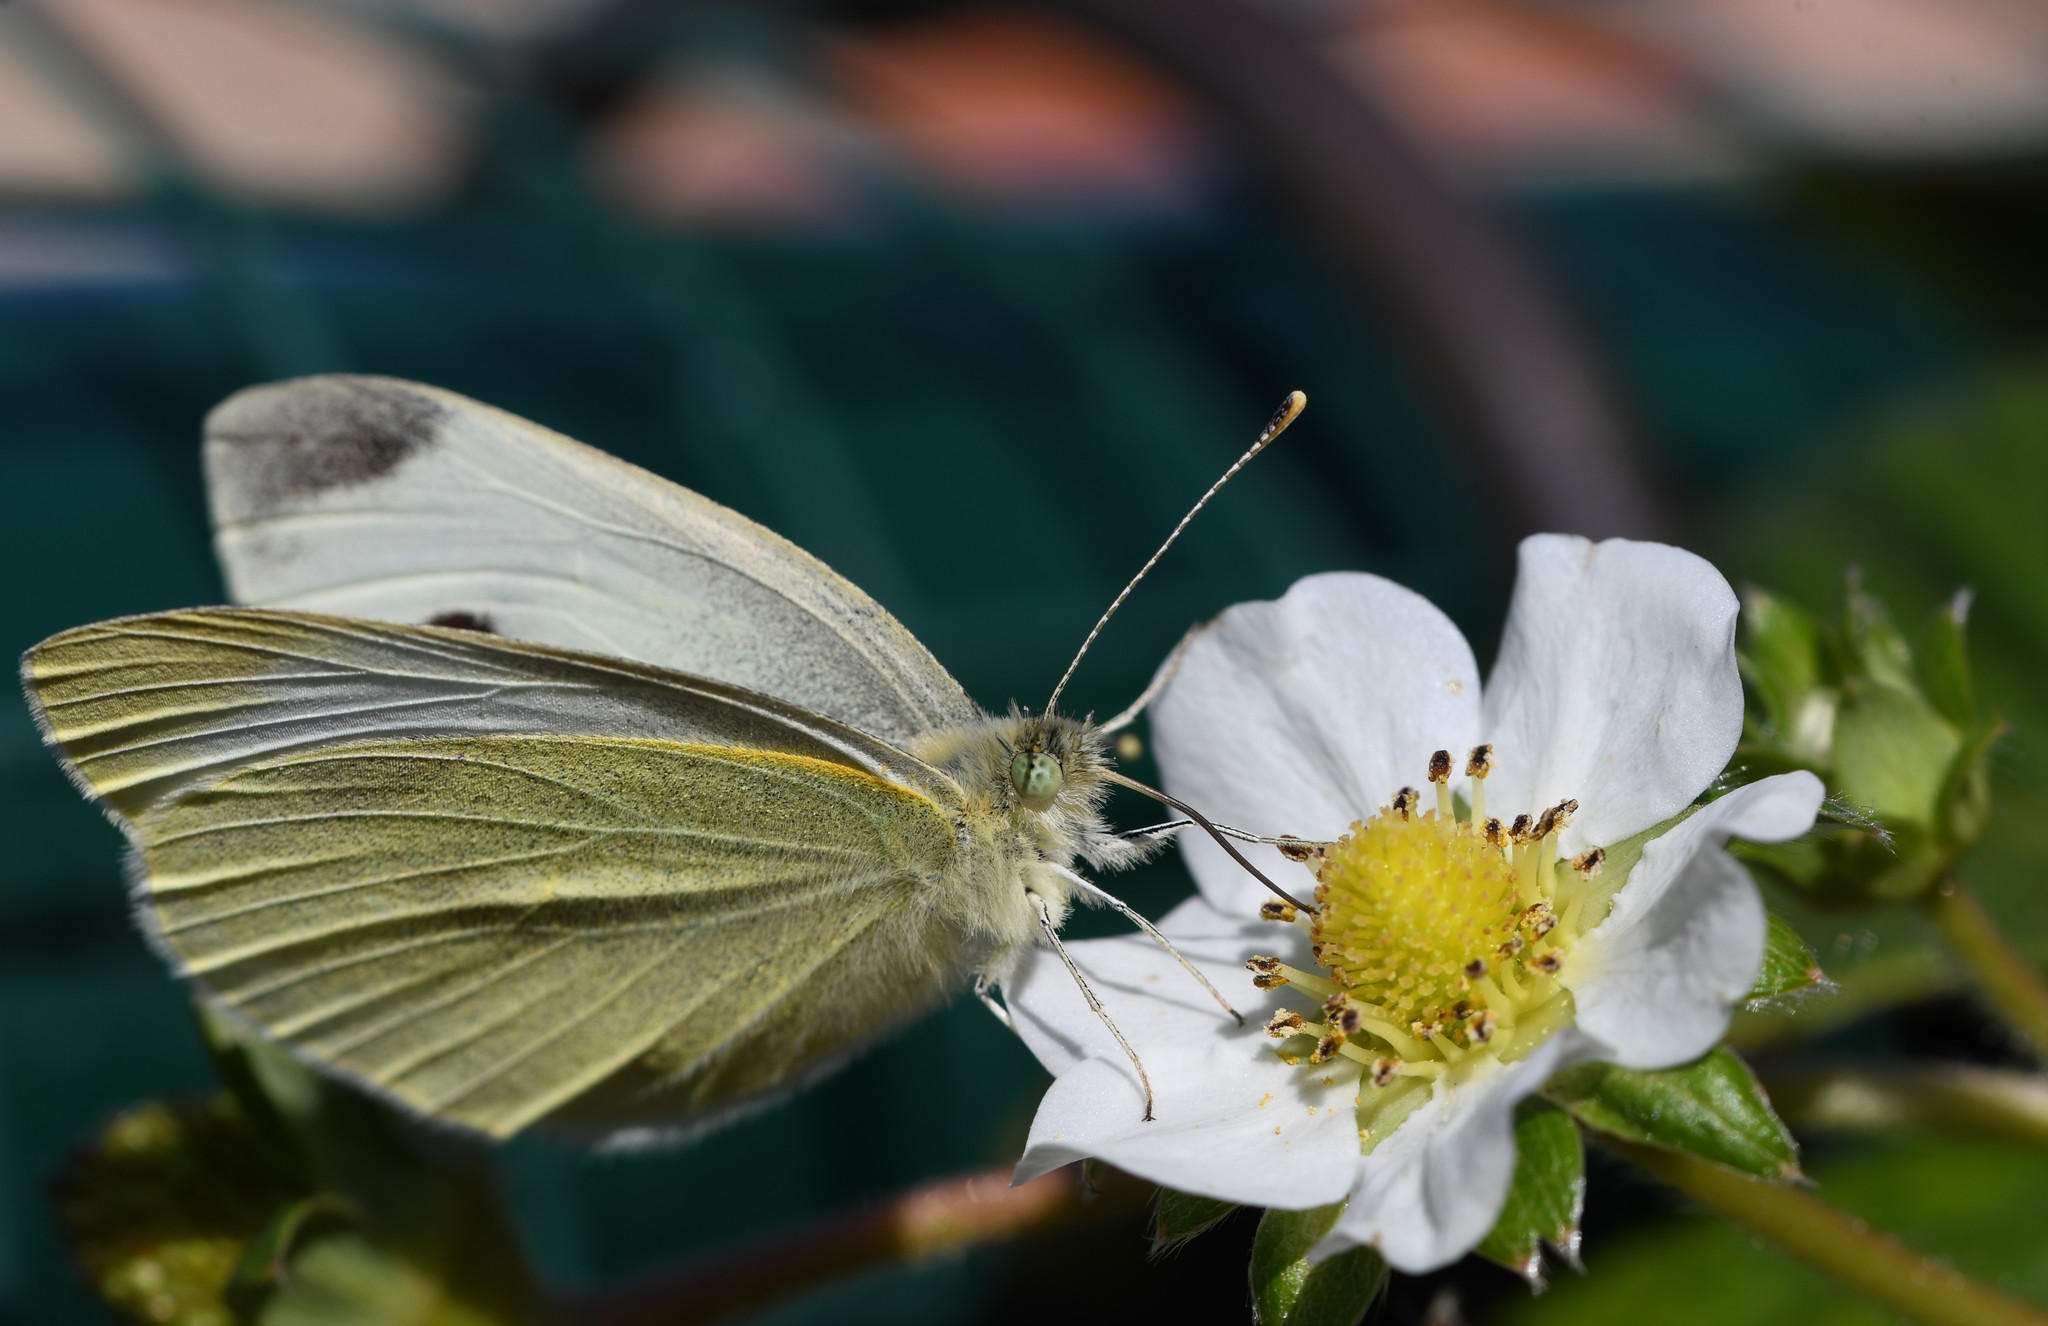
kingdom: Animalia
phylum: Arthropoda
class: Insecta
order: Lepidoptera
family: Pieridae
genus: Pieris
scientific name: Pieris rapae
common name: Small white
